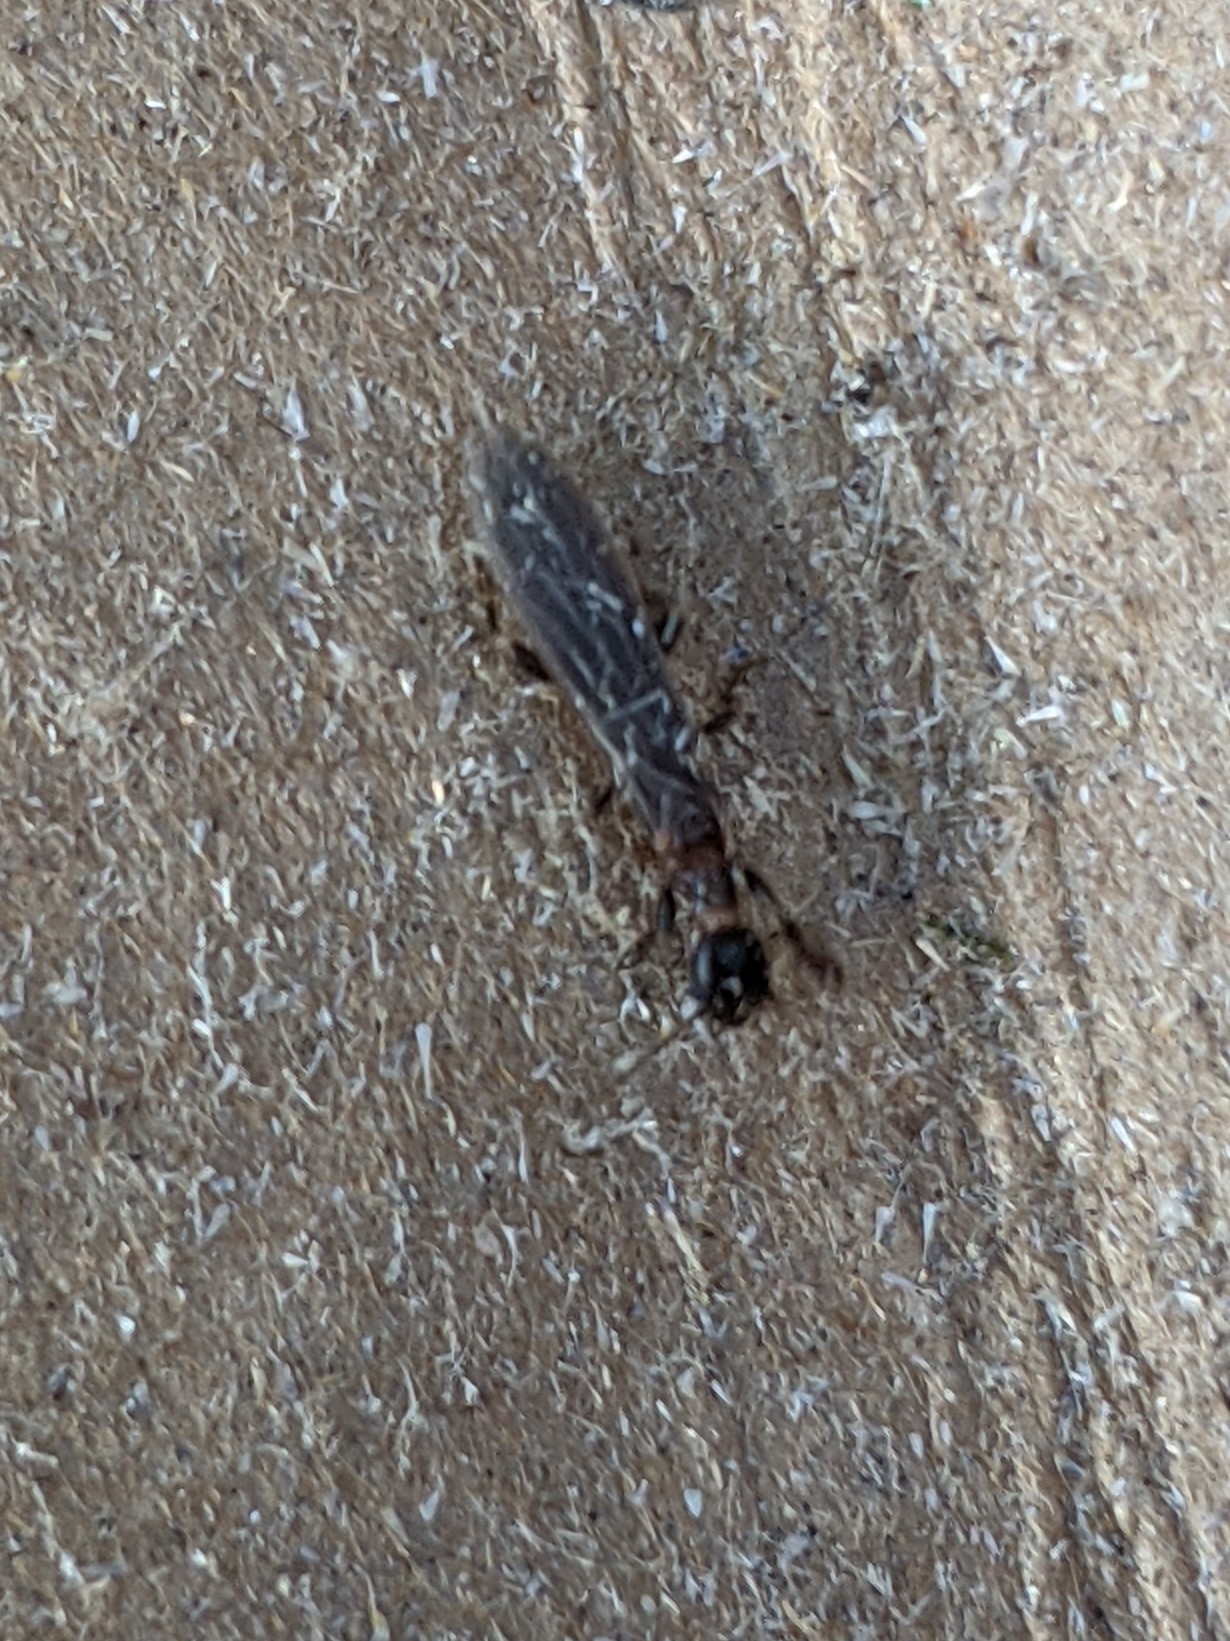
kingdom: Animalia
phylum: Arthropoda
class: Insecta
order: Embioptera
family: Oligotomidae
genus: Oligotoma
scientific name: Oligotoma nigra
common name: Black webspinner
